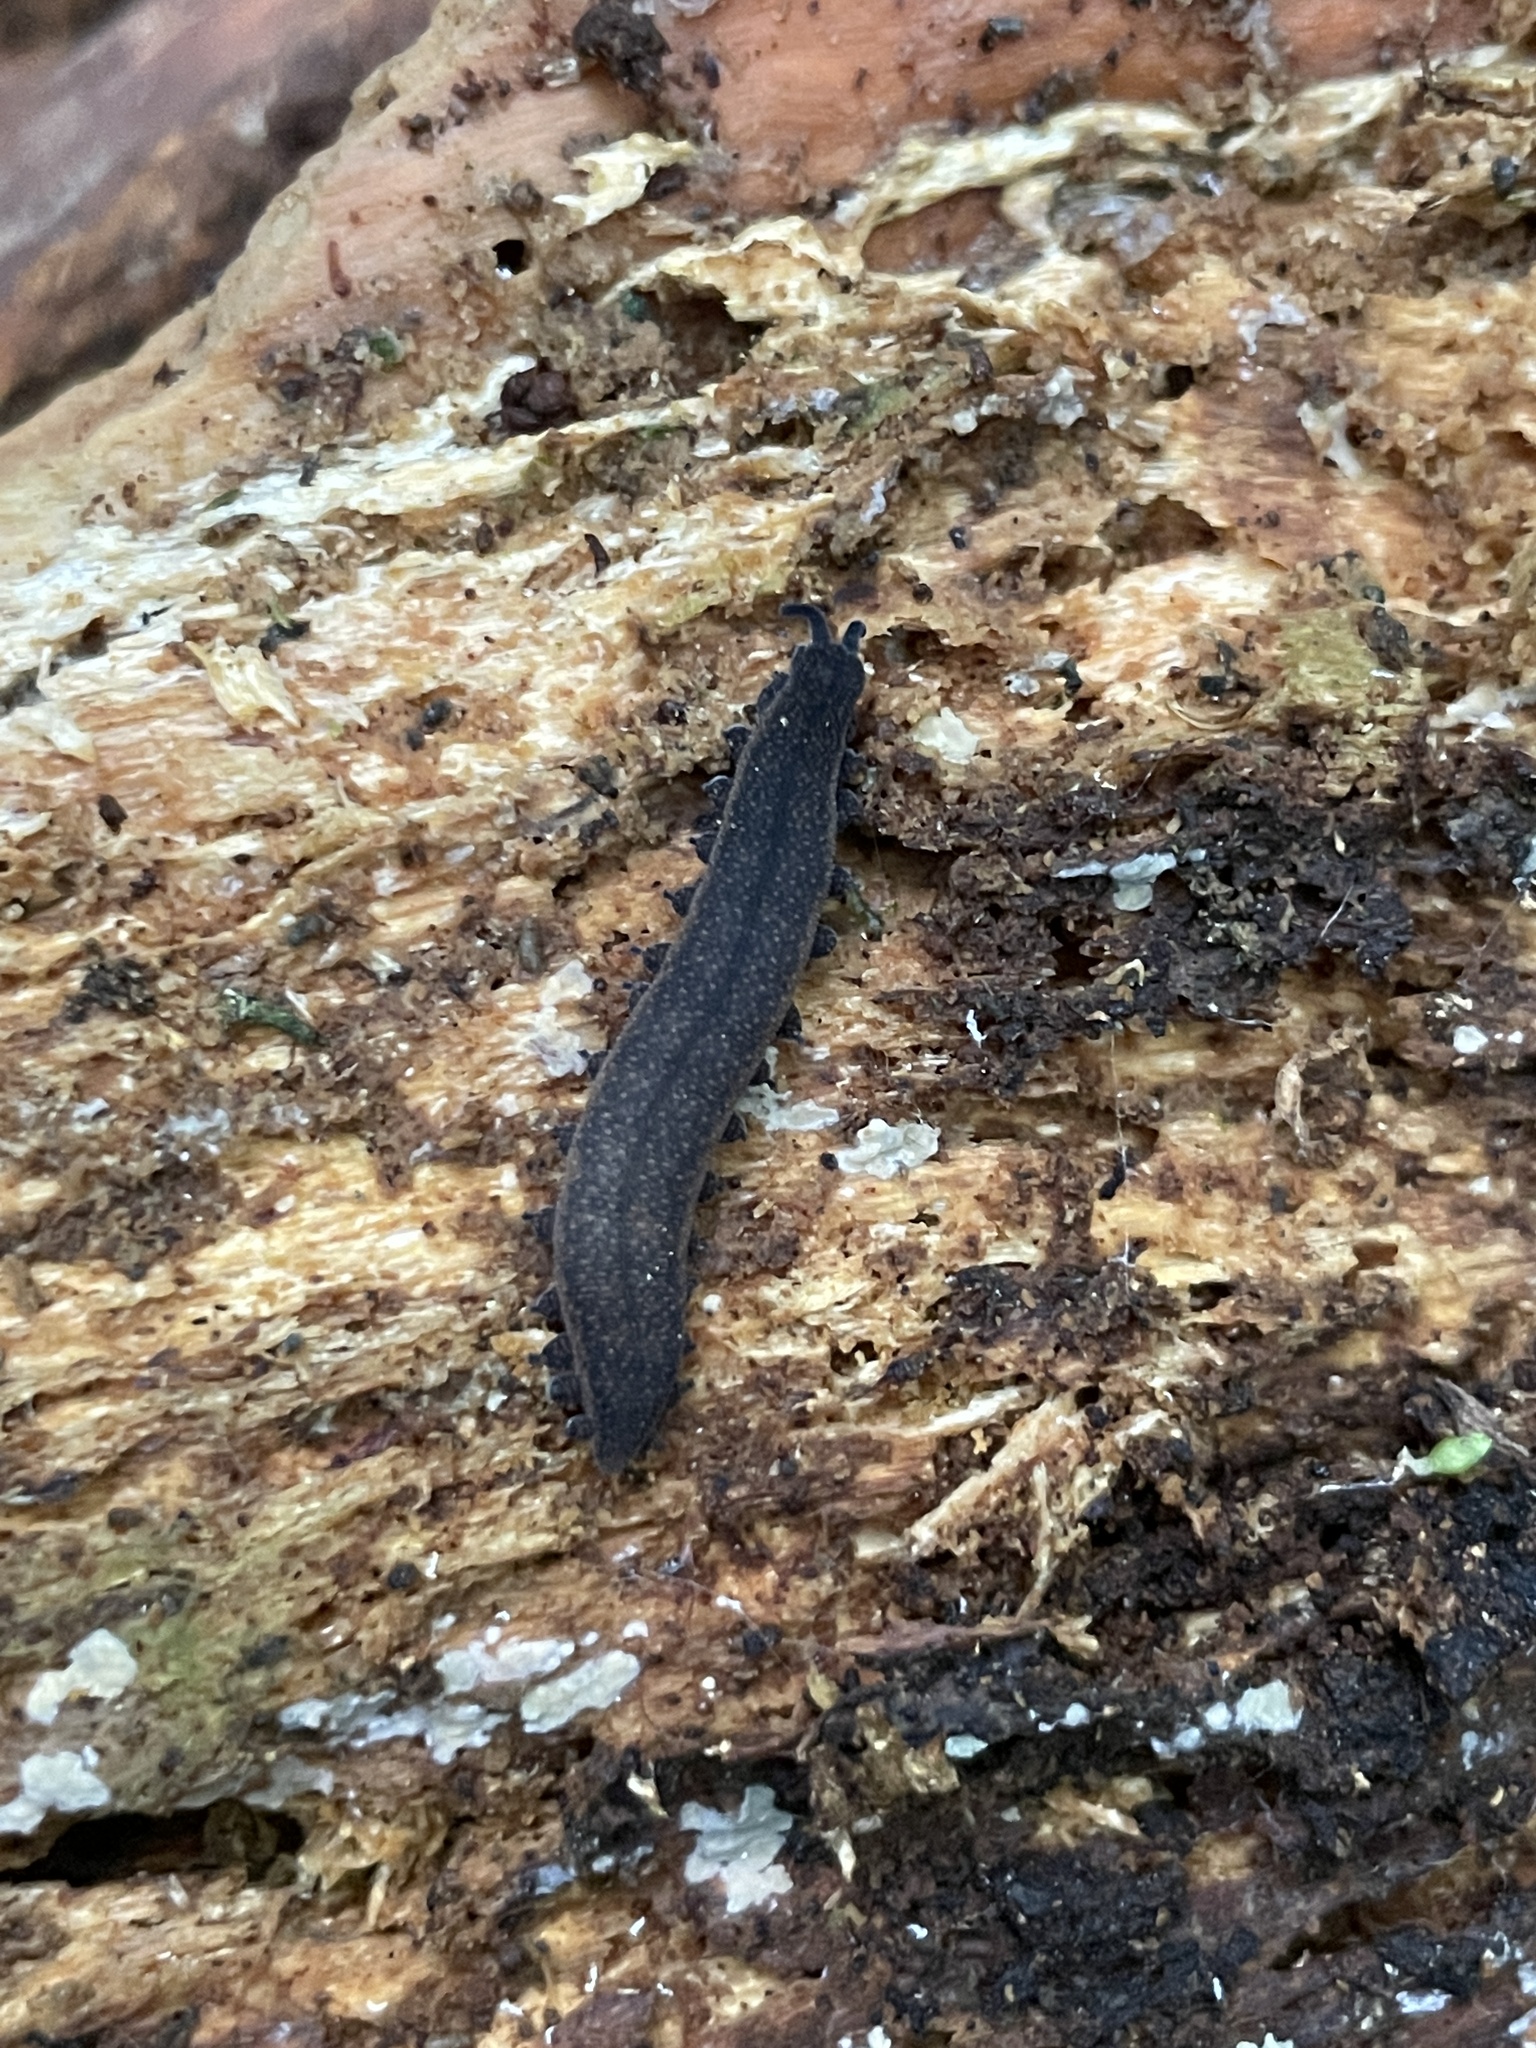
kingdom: Animalia
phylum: Onychophora
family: Peripatopsidae
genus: Peripatoides
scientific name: Peripatoides
